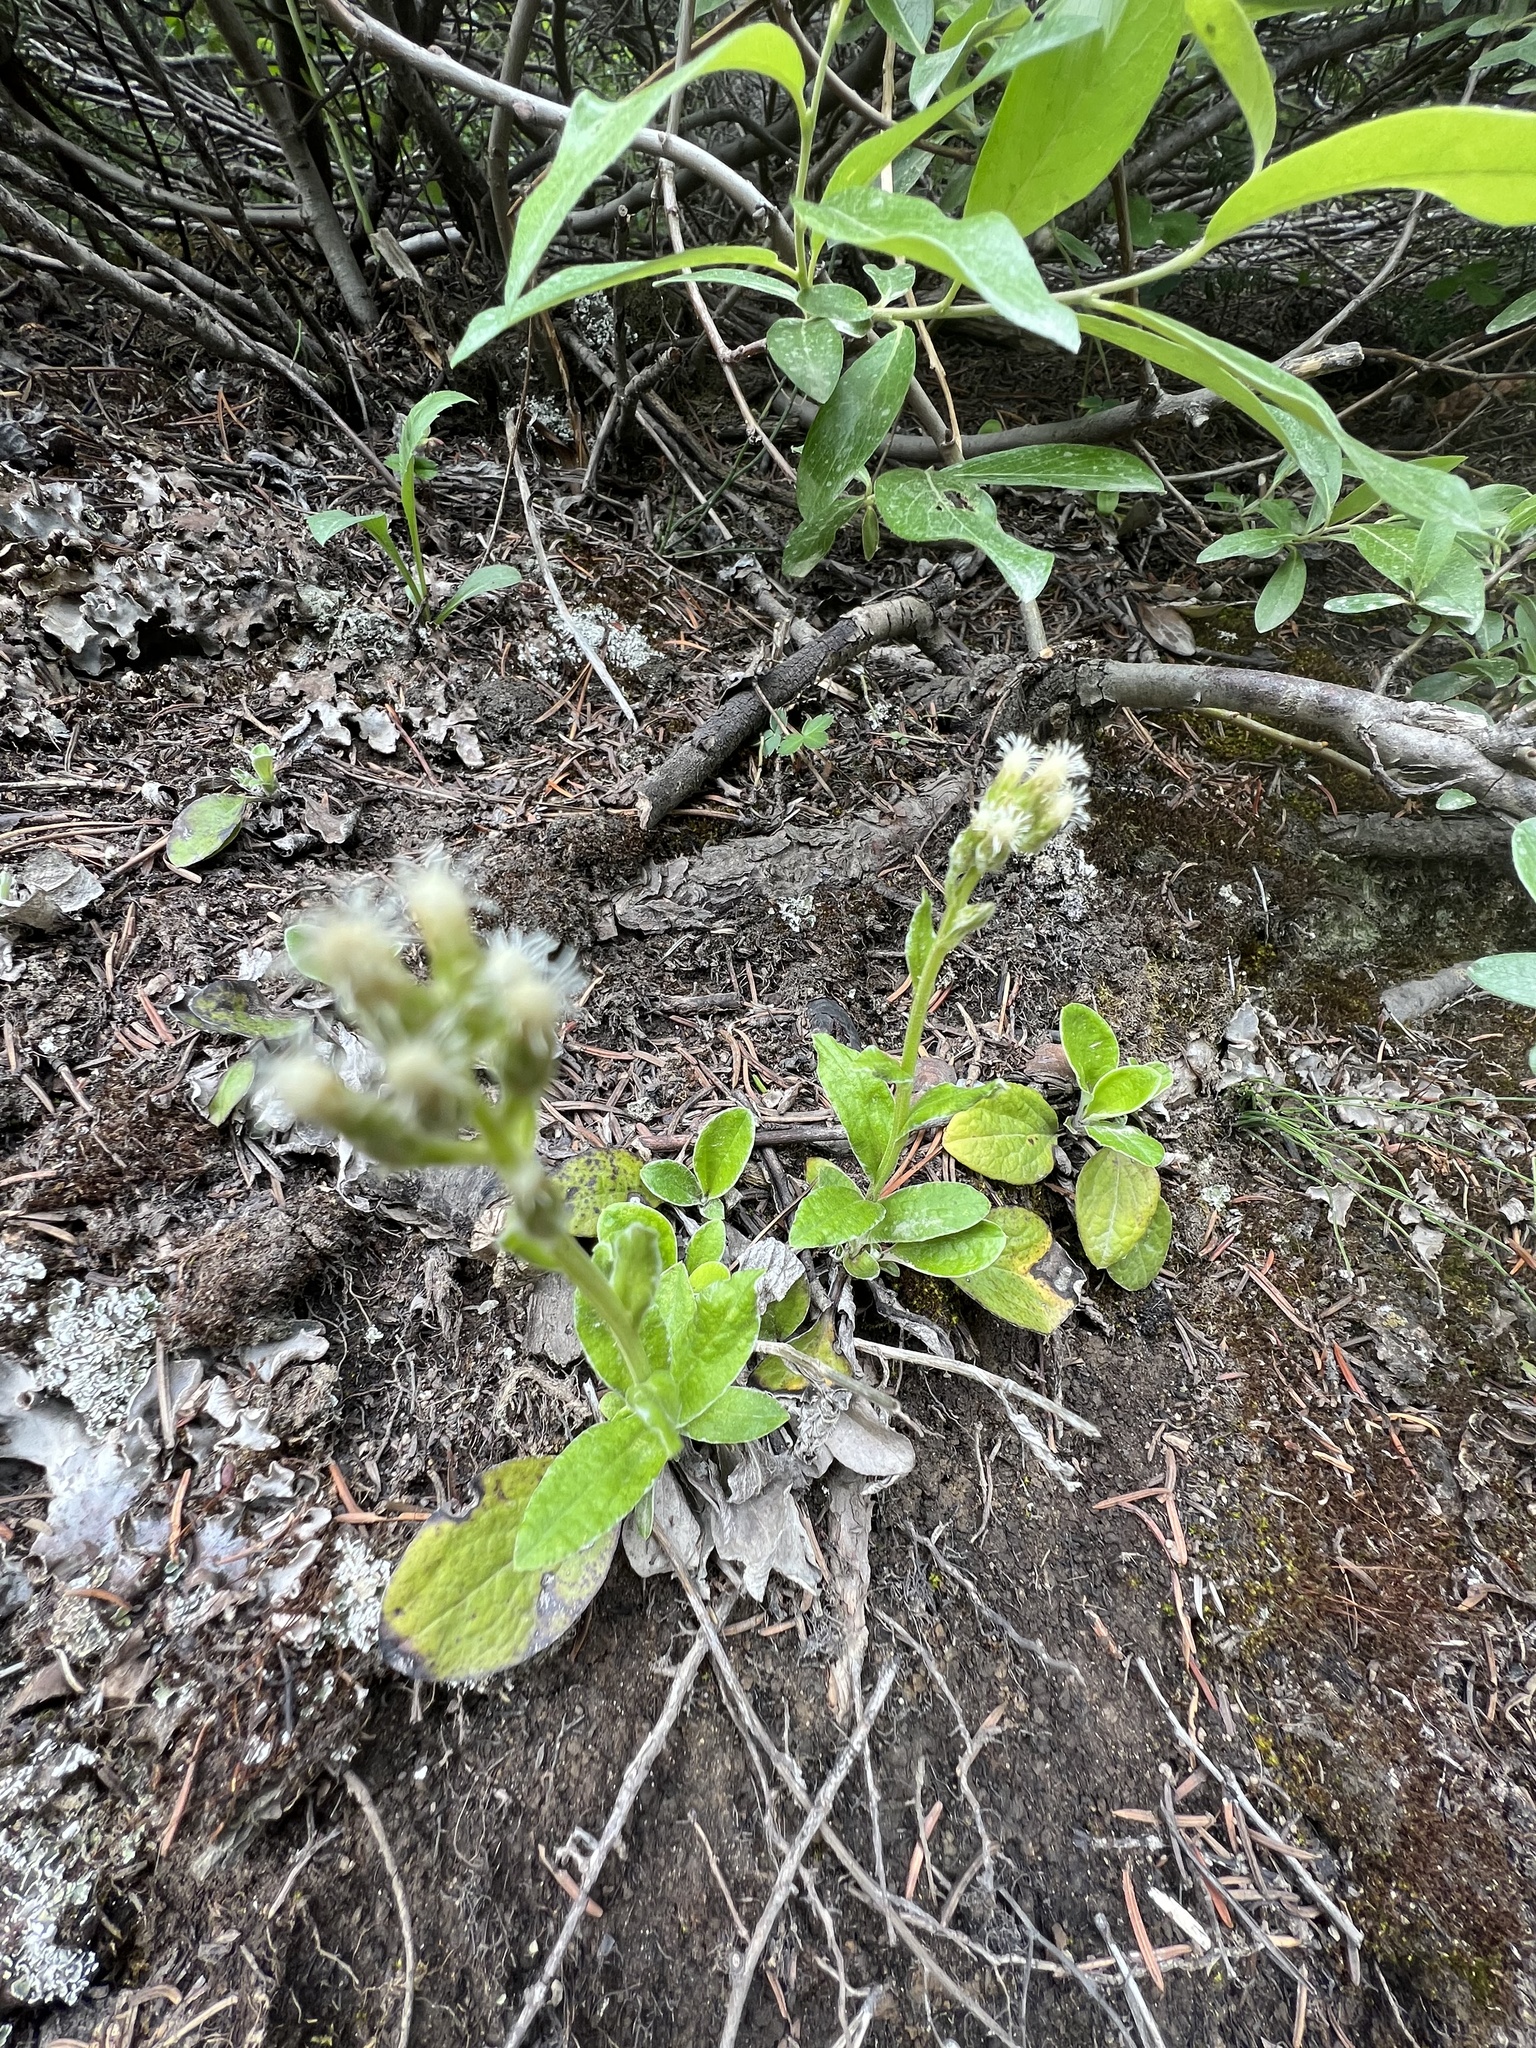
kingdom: Plantae
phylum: Tracheophyta
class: Magnoliopsida
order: Asterales
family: Asteraceae
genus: Antennaria
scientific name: Antennaria racemosa
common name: Racemose pussytoes
